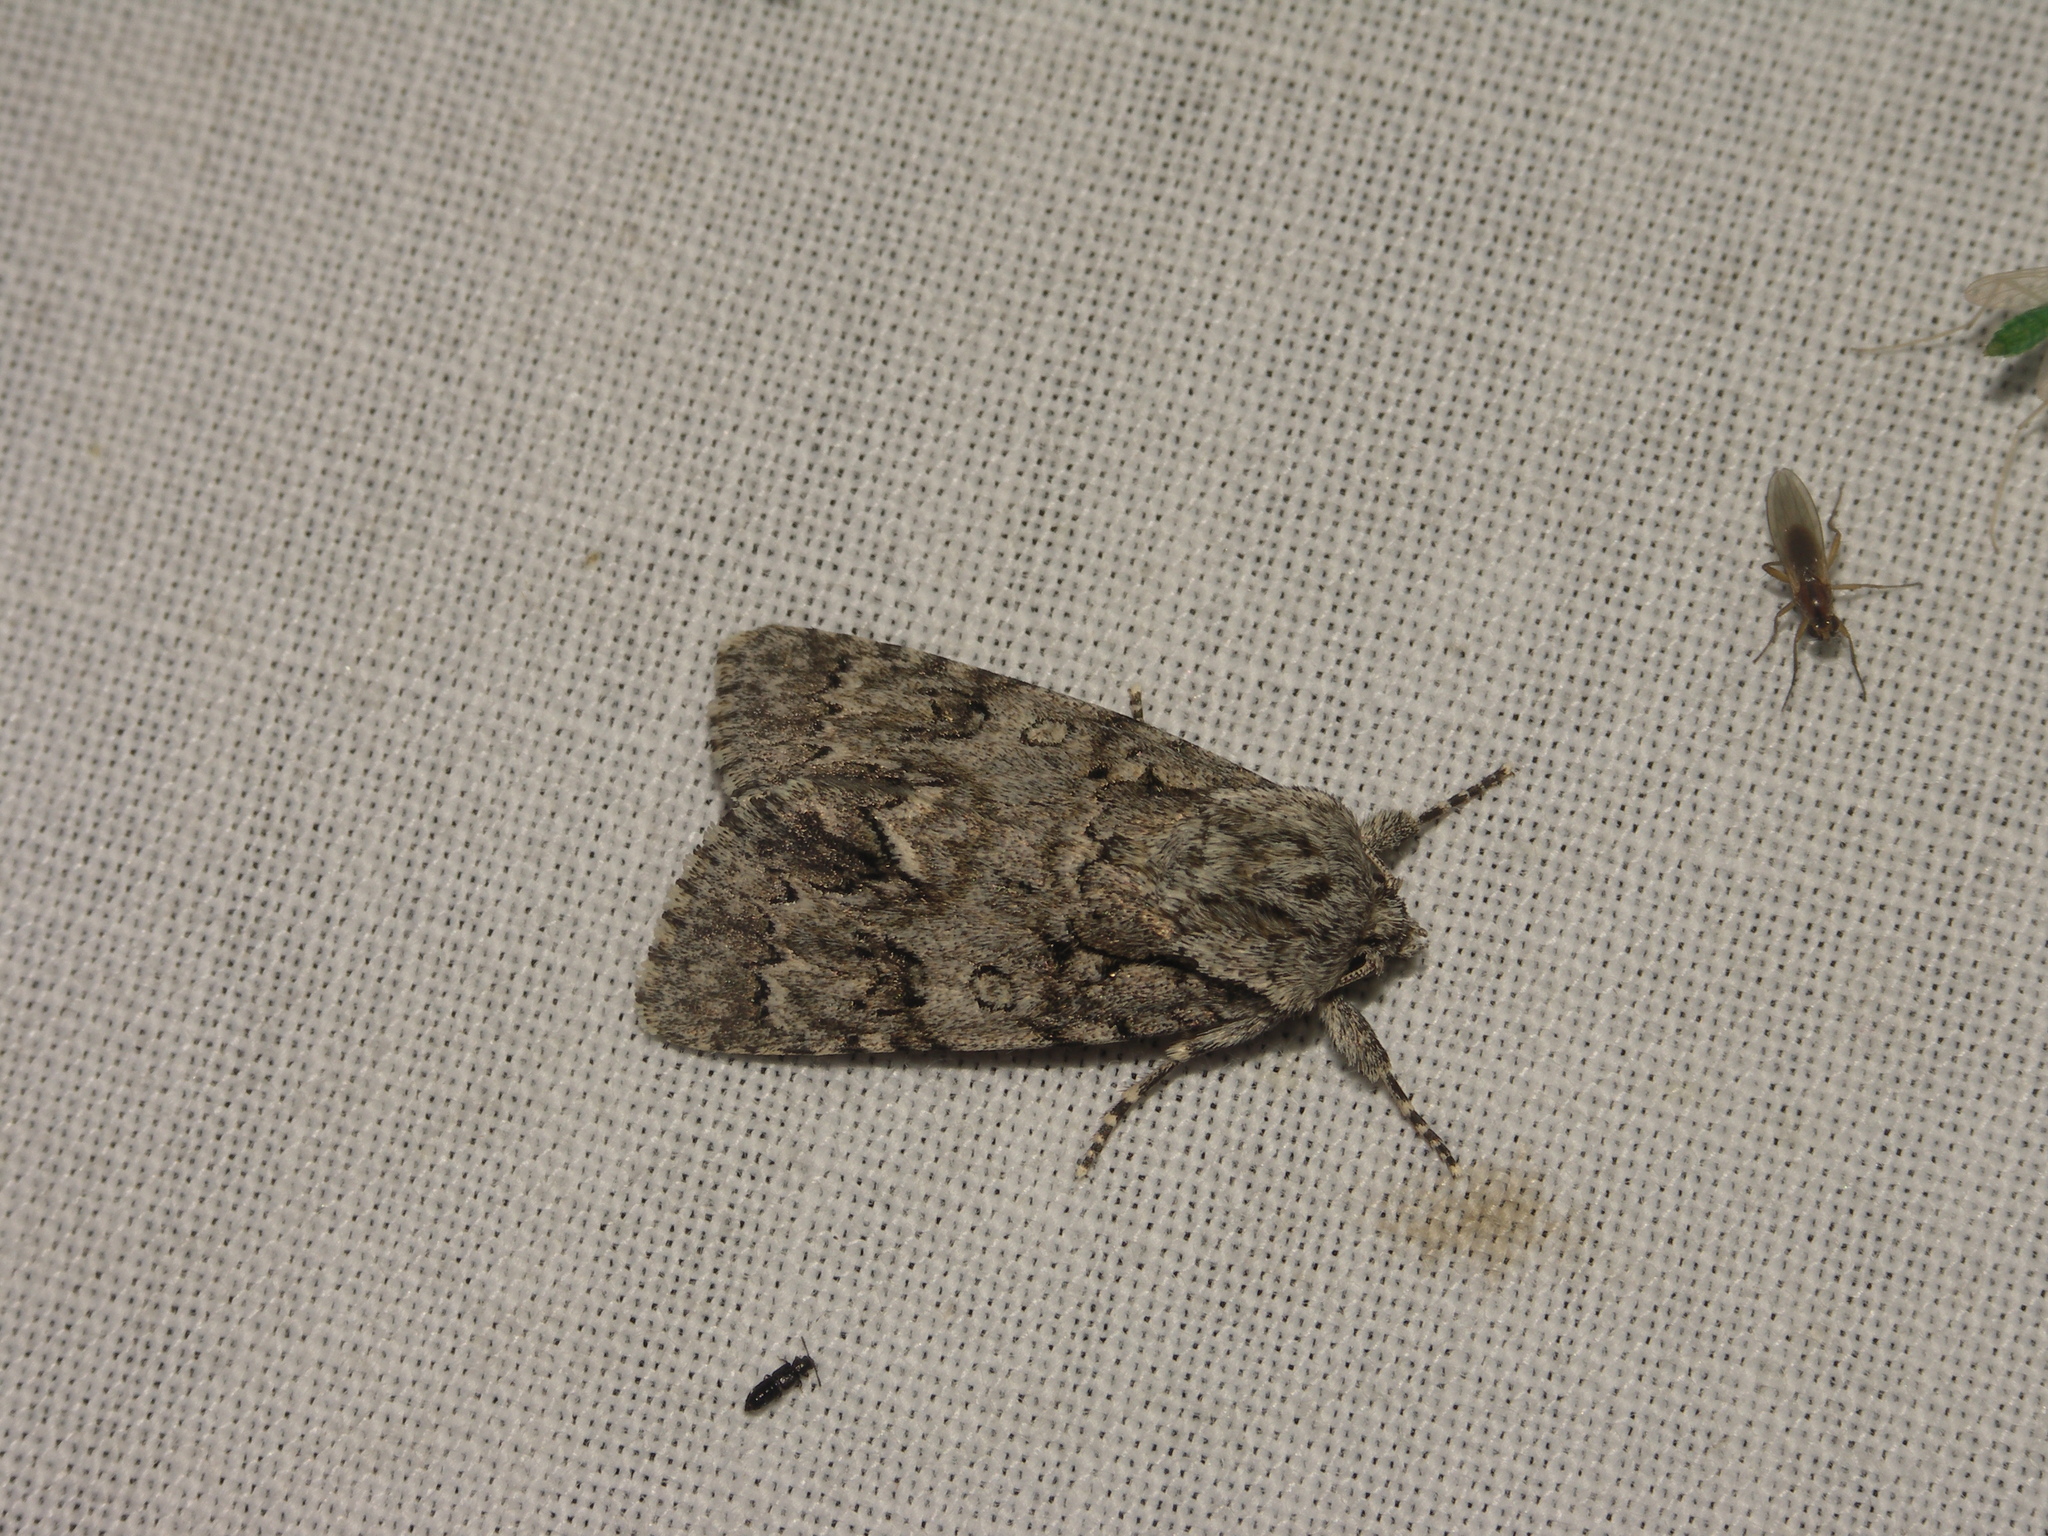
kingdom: Animalia
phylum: Arthropoda
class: Insecta
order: Lepidoptera
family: Noctuidae
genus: Acronicta
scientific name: Acronicta auricoma
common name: Scarce dagger
